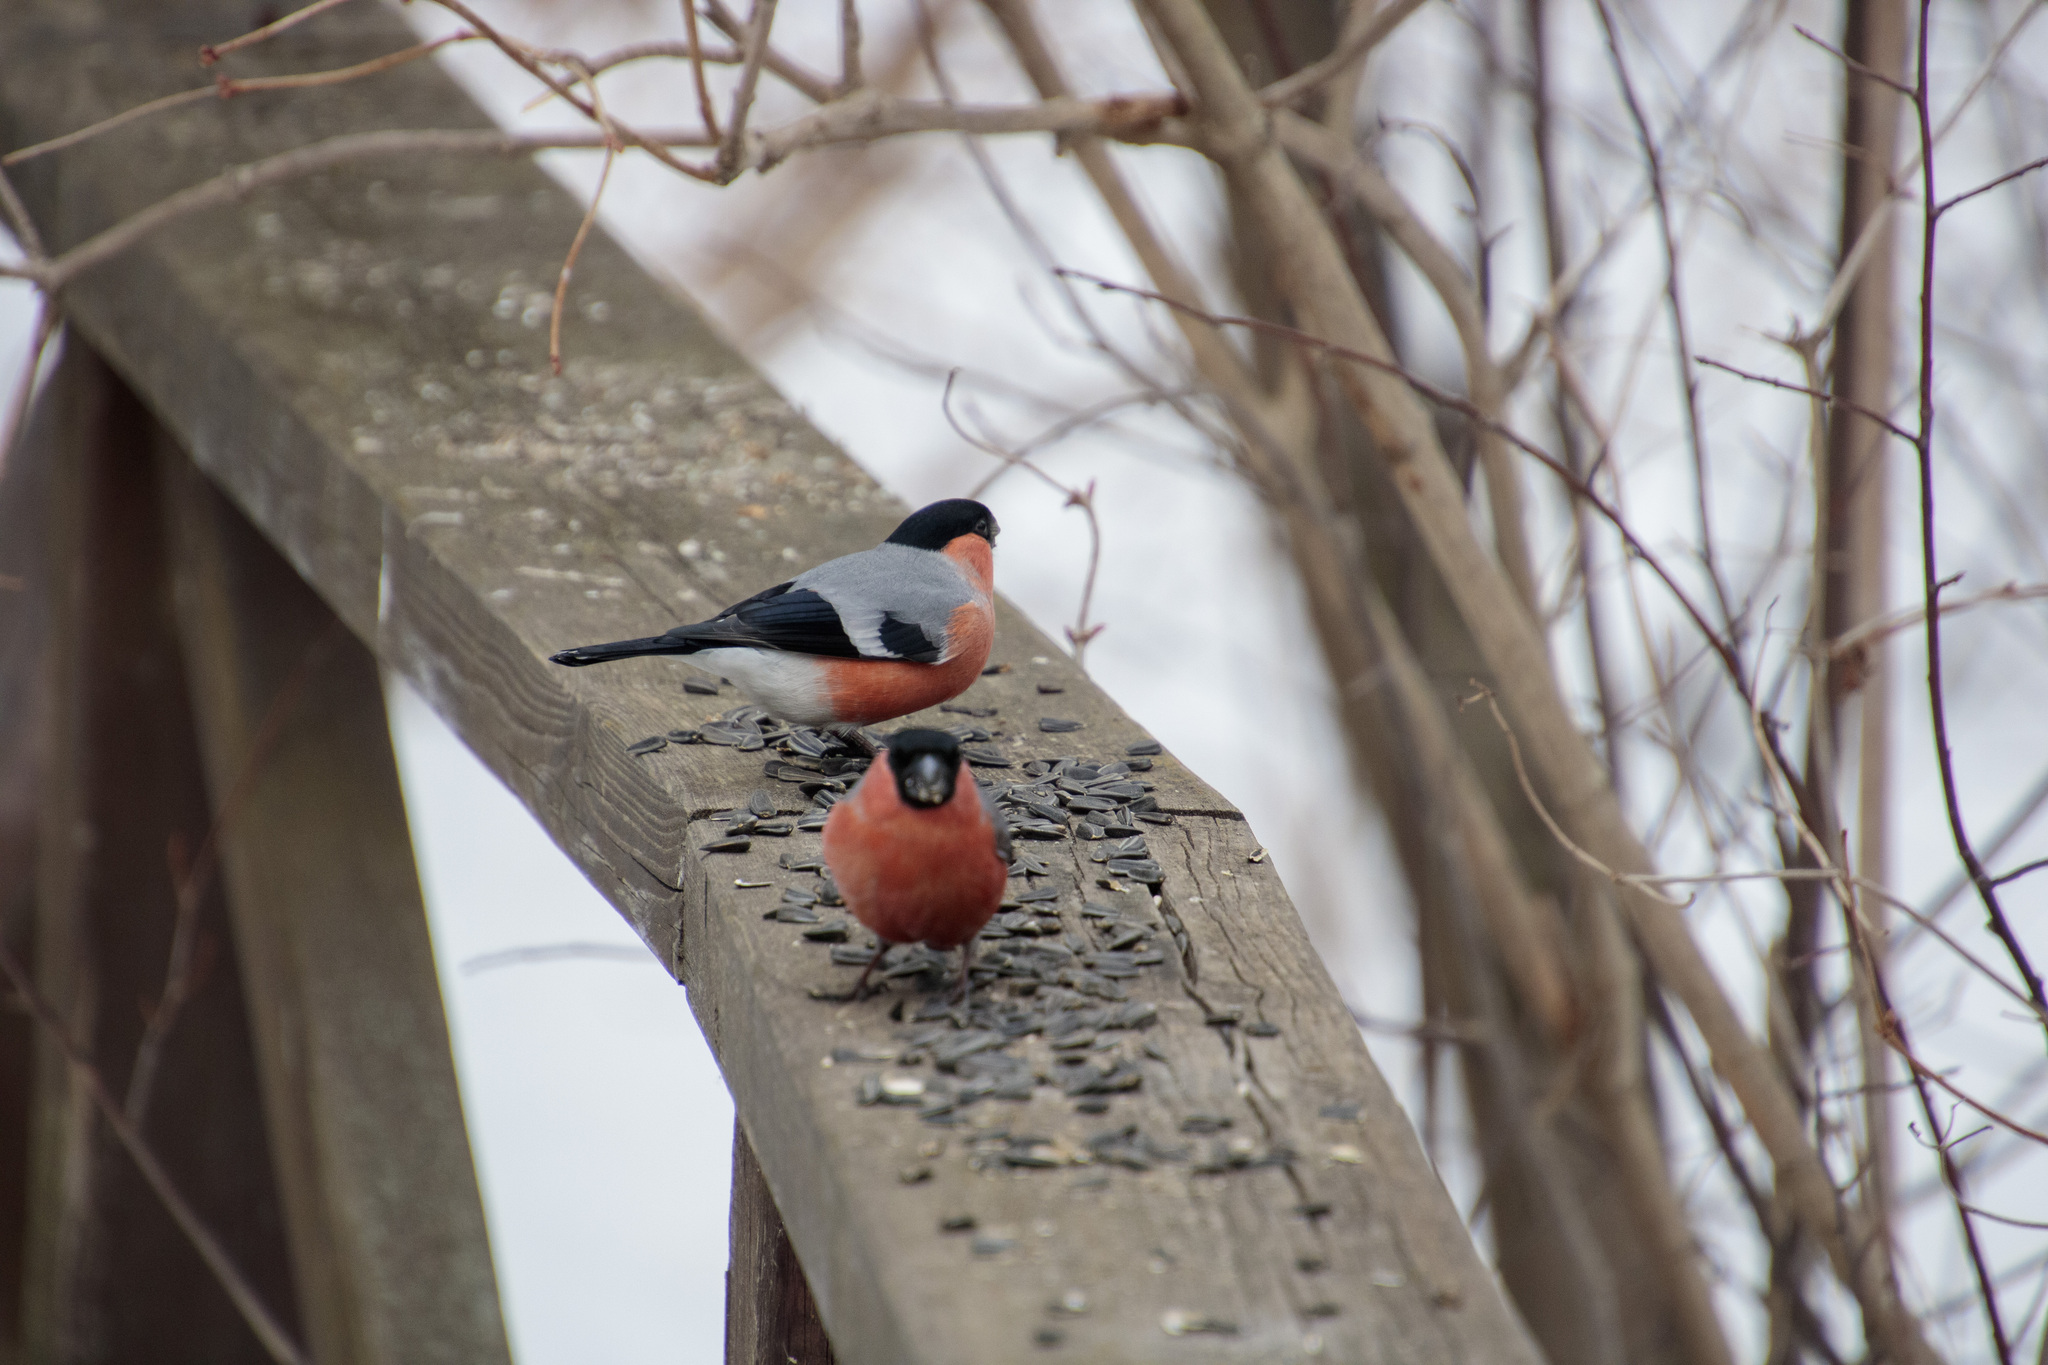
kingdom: Animalia
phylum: Chordata
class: Aves
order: Passeriformes
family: Fringillidae
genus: Pyrrhula
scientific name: Pyrrhula pyrrhula
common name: Eurasian bullfinch
